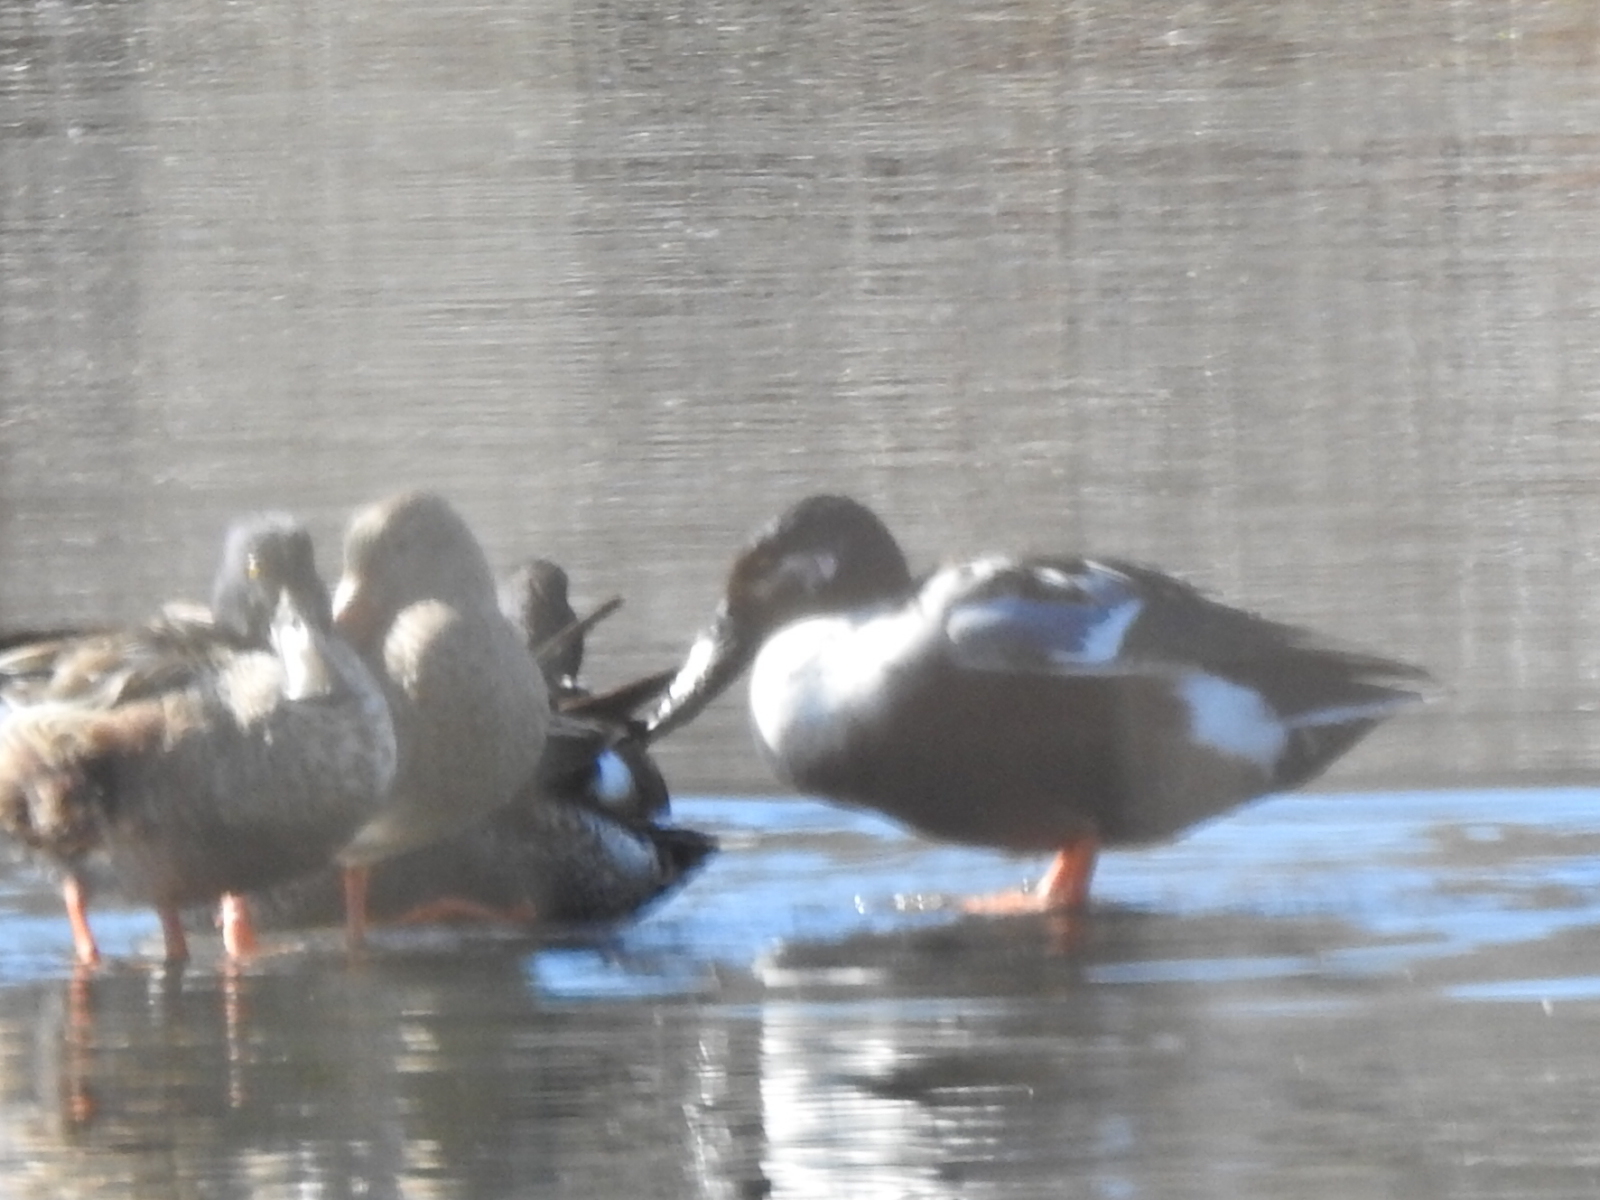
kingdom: Animalia
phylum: Chordata
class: Aves
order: Anseriformes
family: Anatidae
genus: Spatula
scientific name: Spatula clypeata
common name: Northern shoveler
